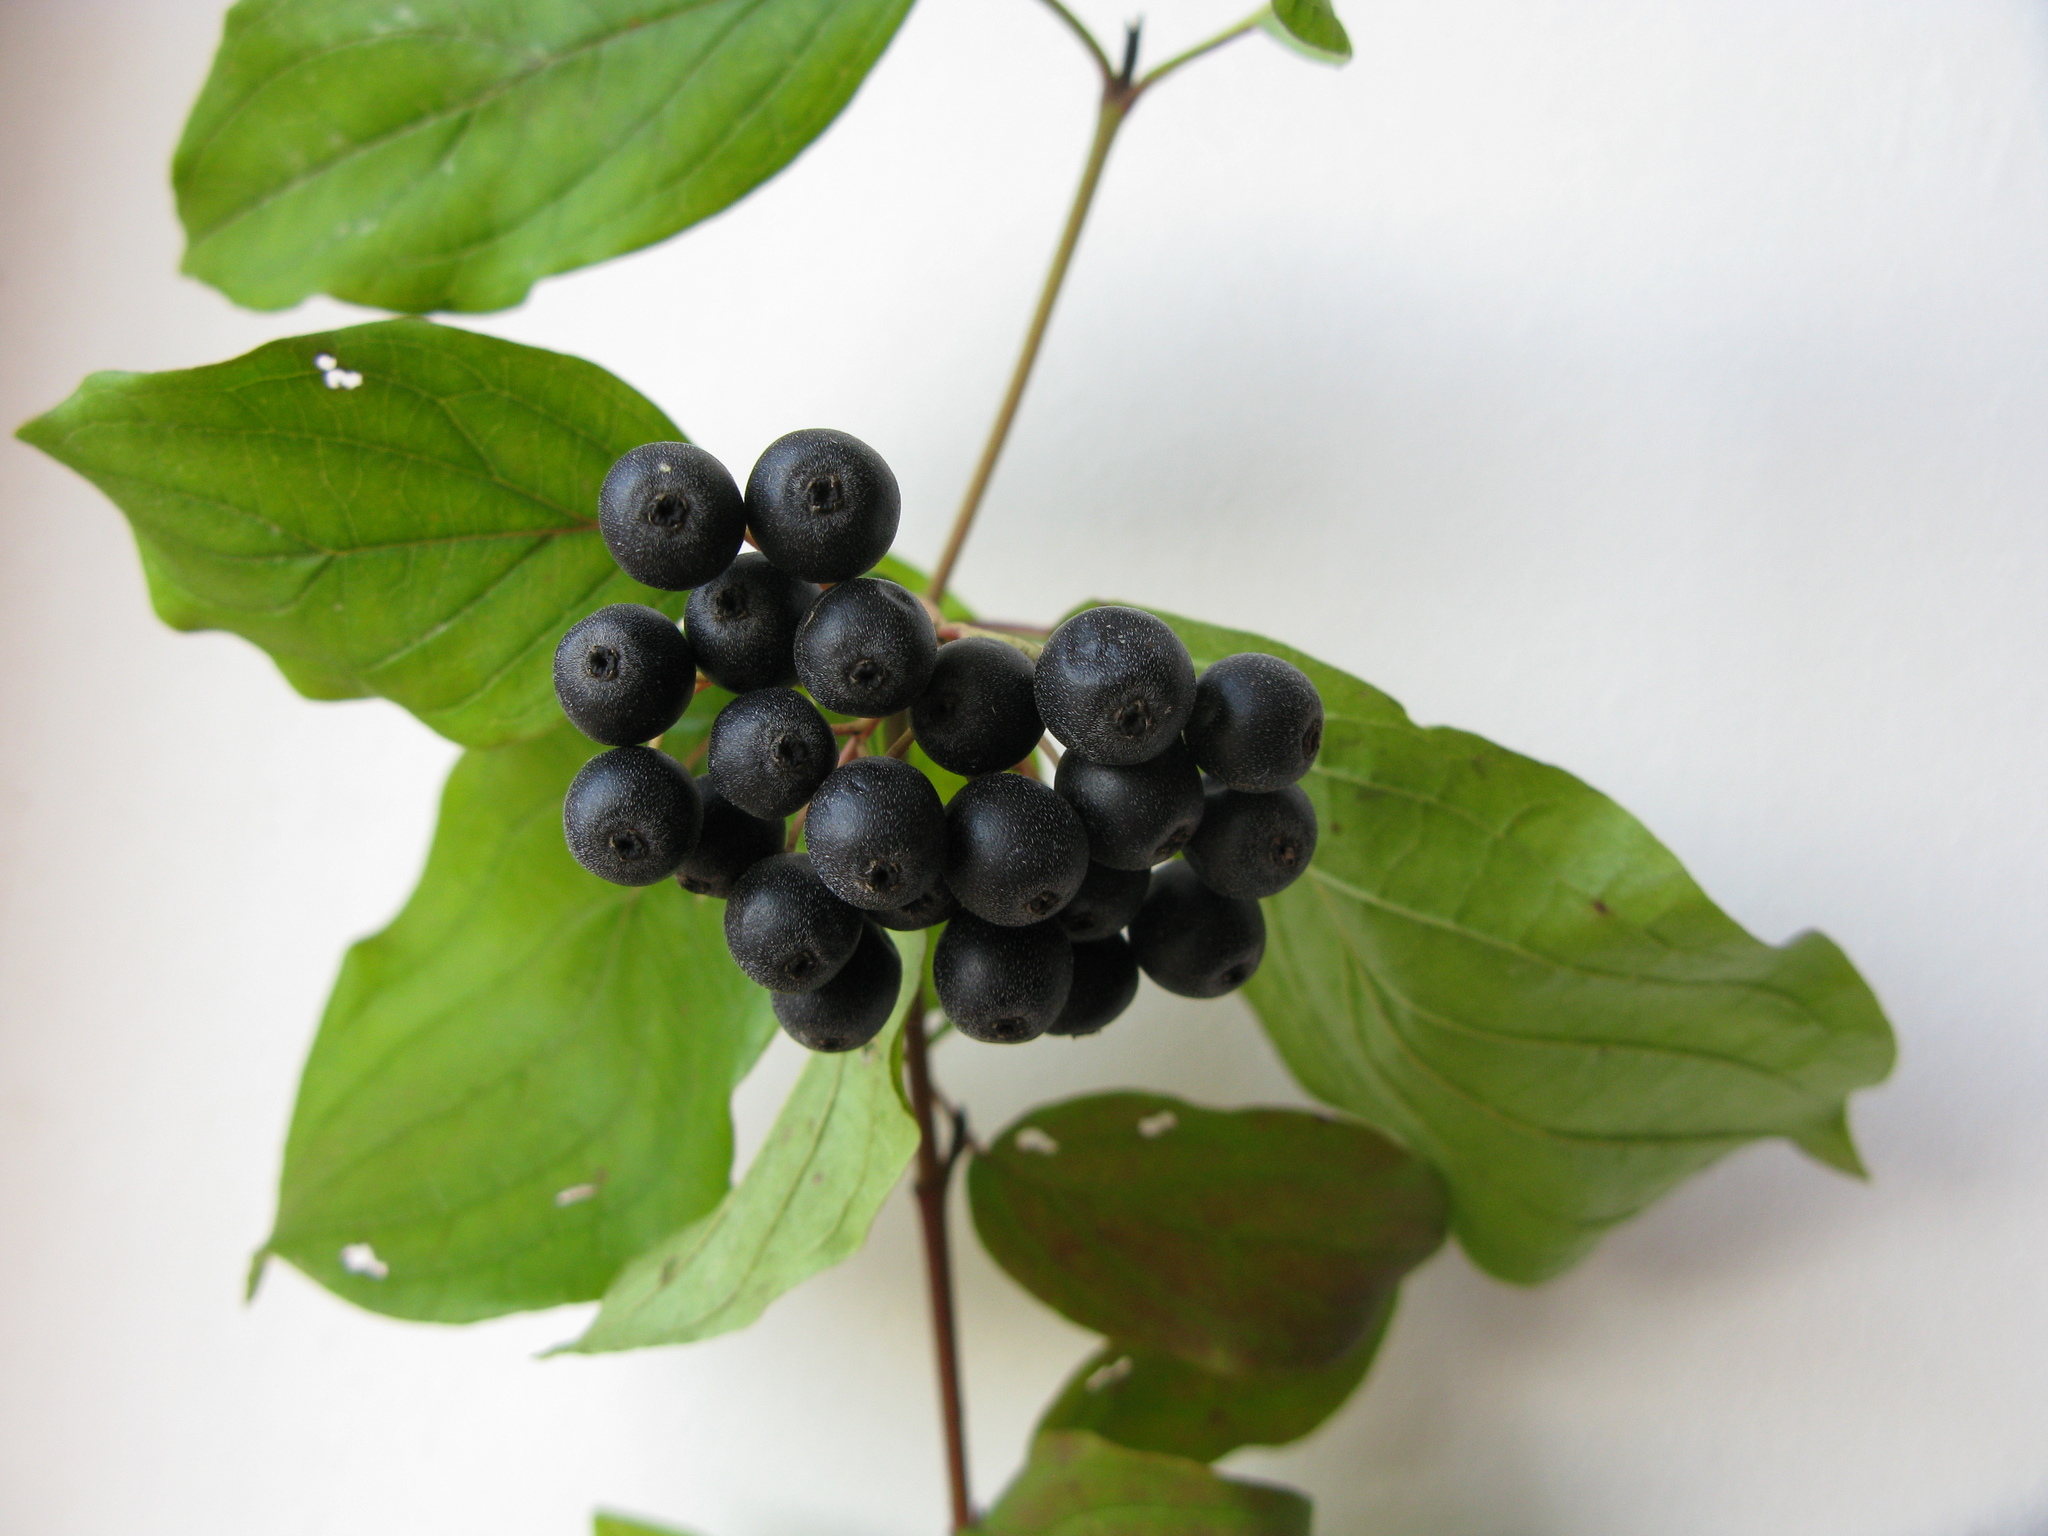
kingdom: Plantae
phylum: Tracheophyta
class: Magnoliopsida
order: Cornales
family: Cornaceae
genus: Cornus
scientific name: Cornus sanguinea
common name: Dogwood
